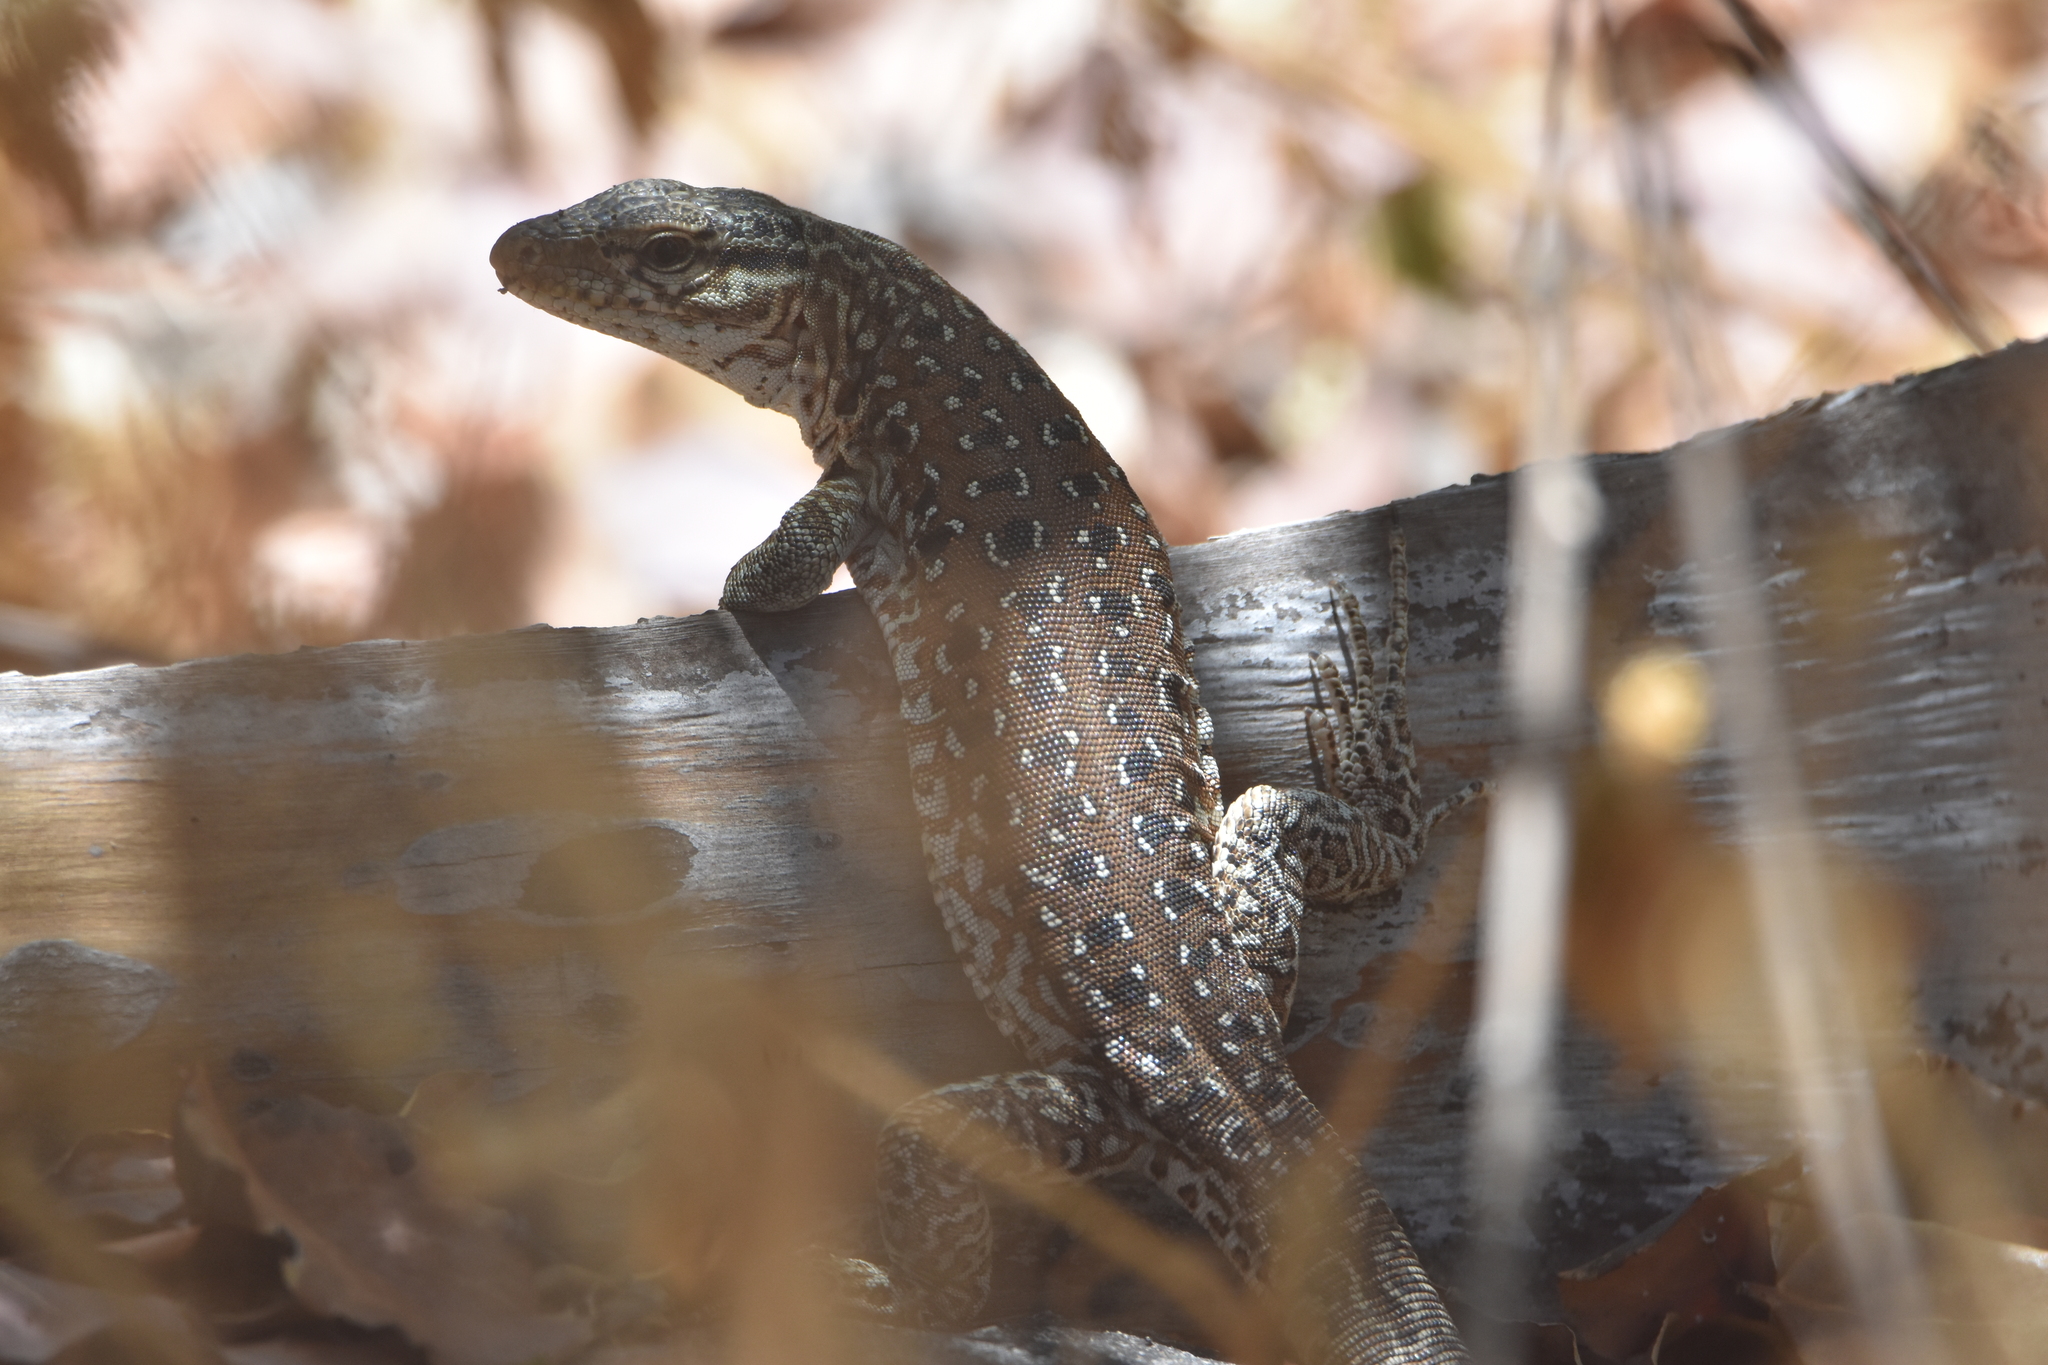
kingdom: Animalia
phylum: Chordata
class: Squamata
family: Teiidae
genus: Callopistes
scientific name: Callopistes maculatus
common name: Spotted false monitor
